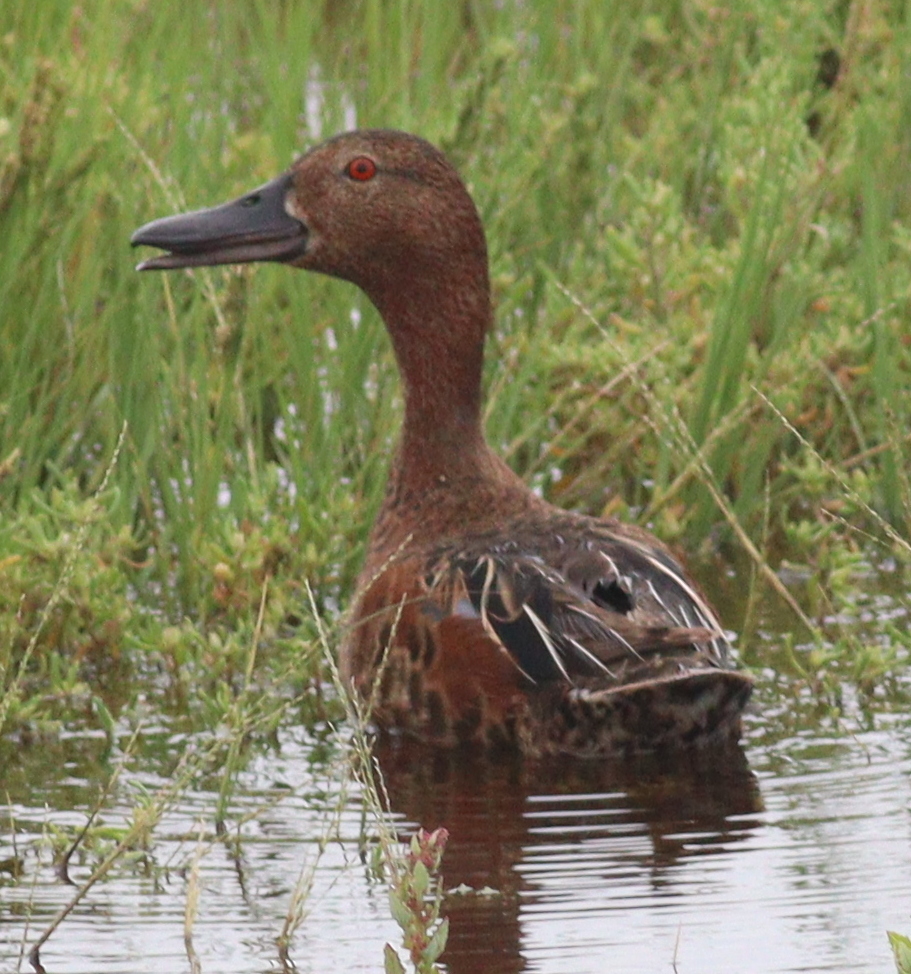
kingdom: Animalia
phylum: Chordata
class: Aves
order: Anseriformes
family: Anatidae
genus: Spatula
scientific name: Spatula cyanoptera
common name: Cinnamon teal
